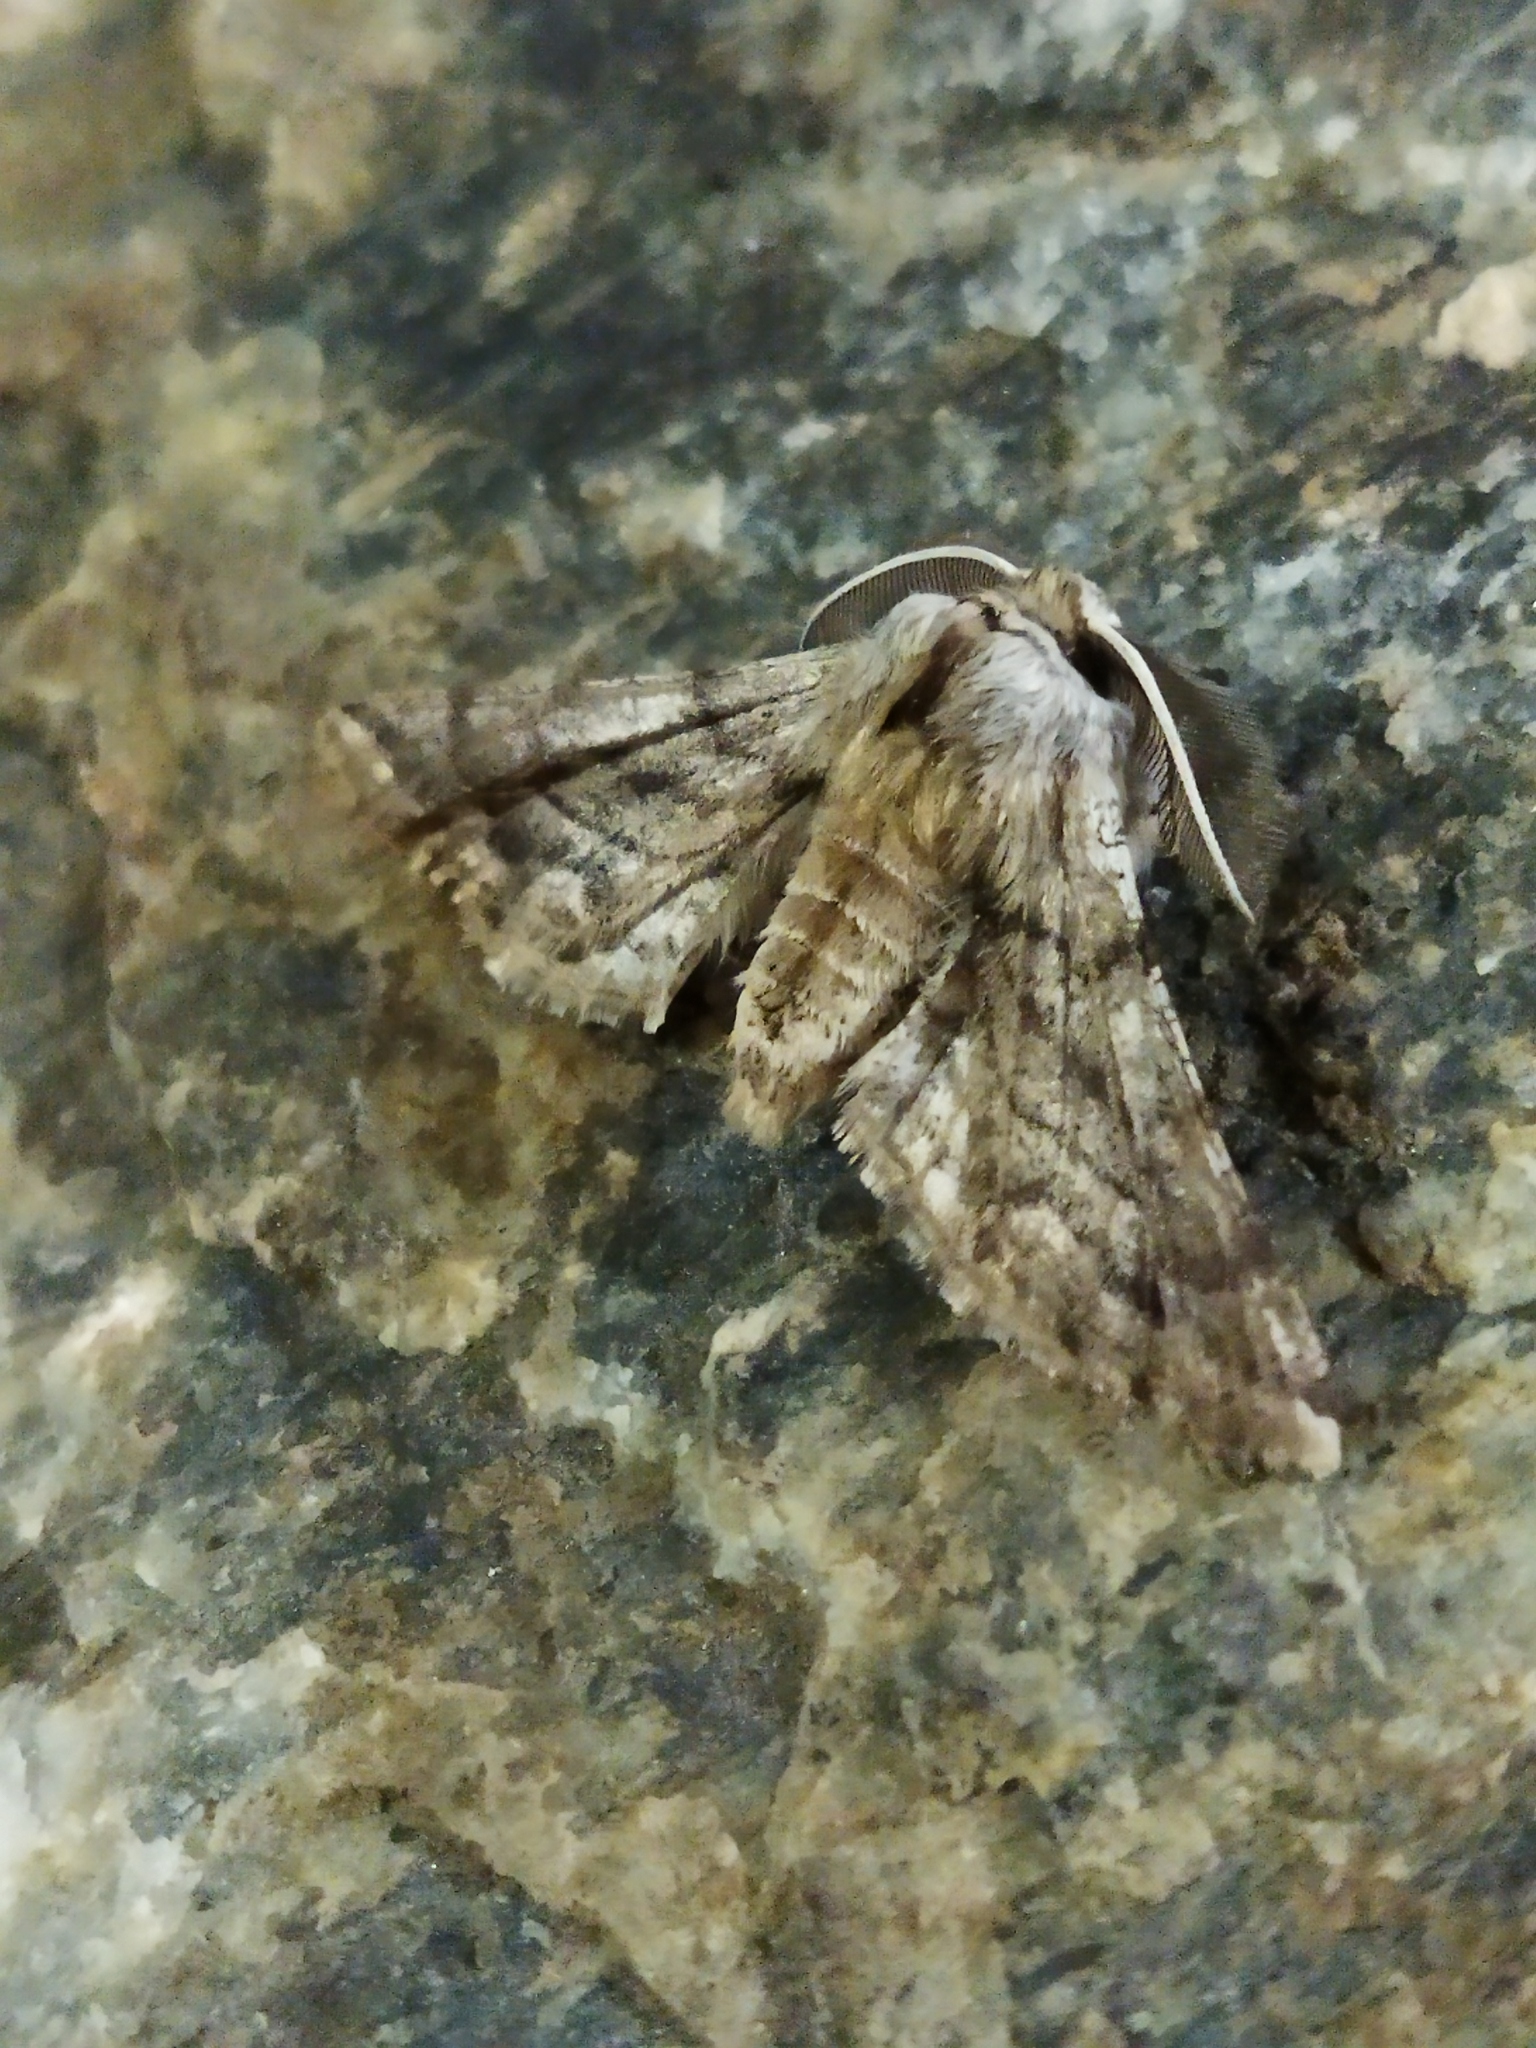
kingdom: Animalia
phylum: Arthropoda
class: Insecta
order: Lepidoptera
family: Geometridae
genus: Apochima
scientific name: Apochima flabellaria
